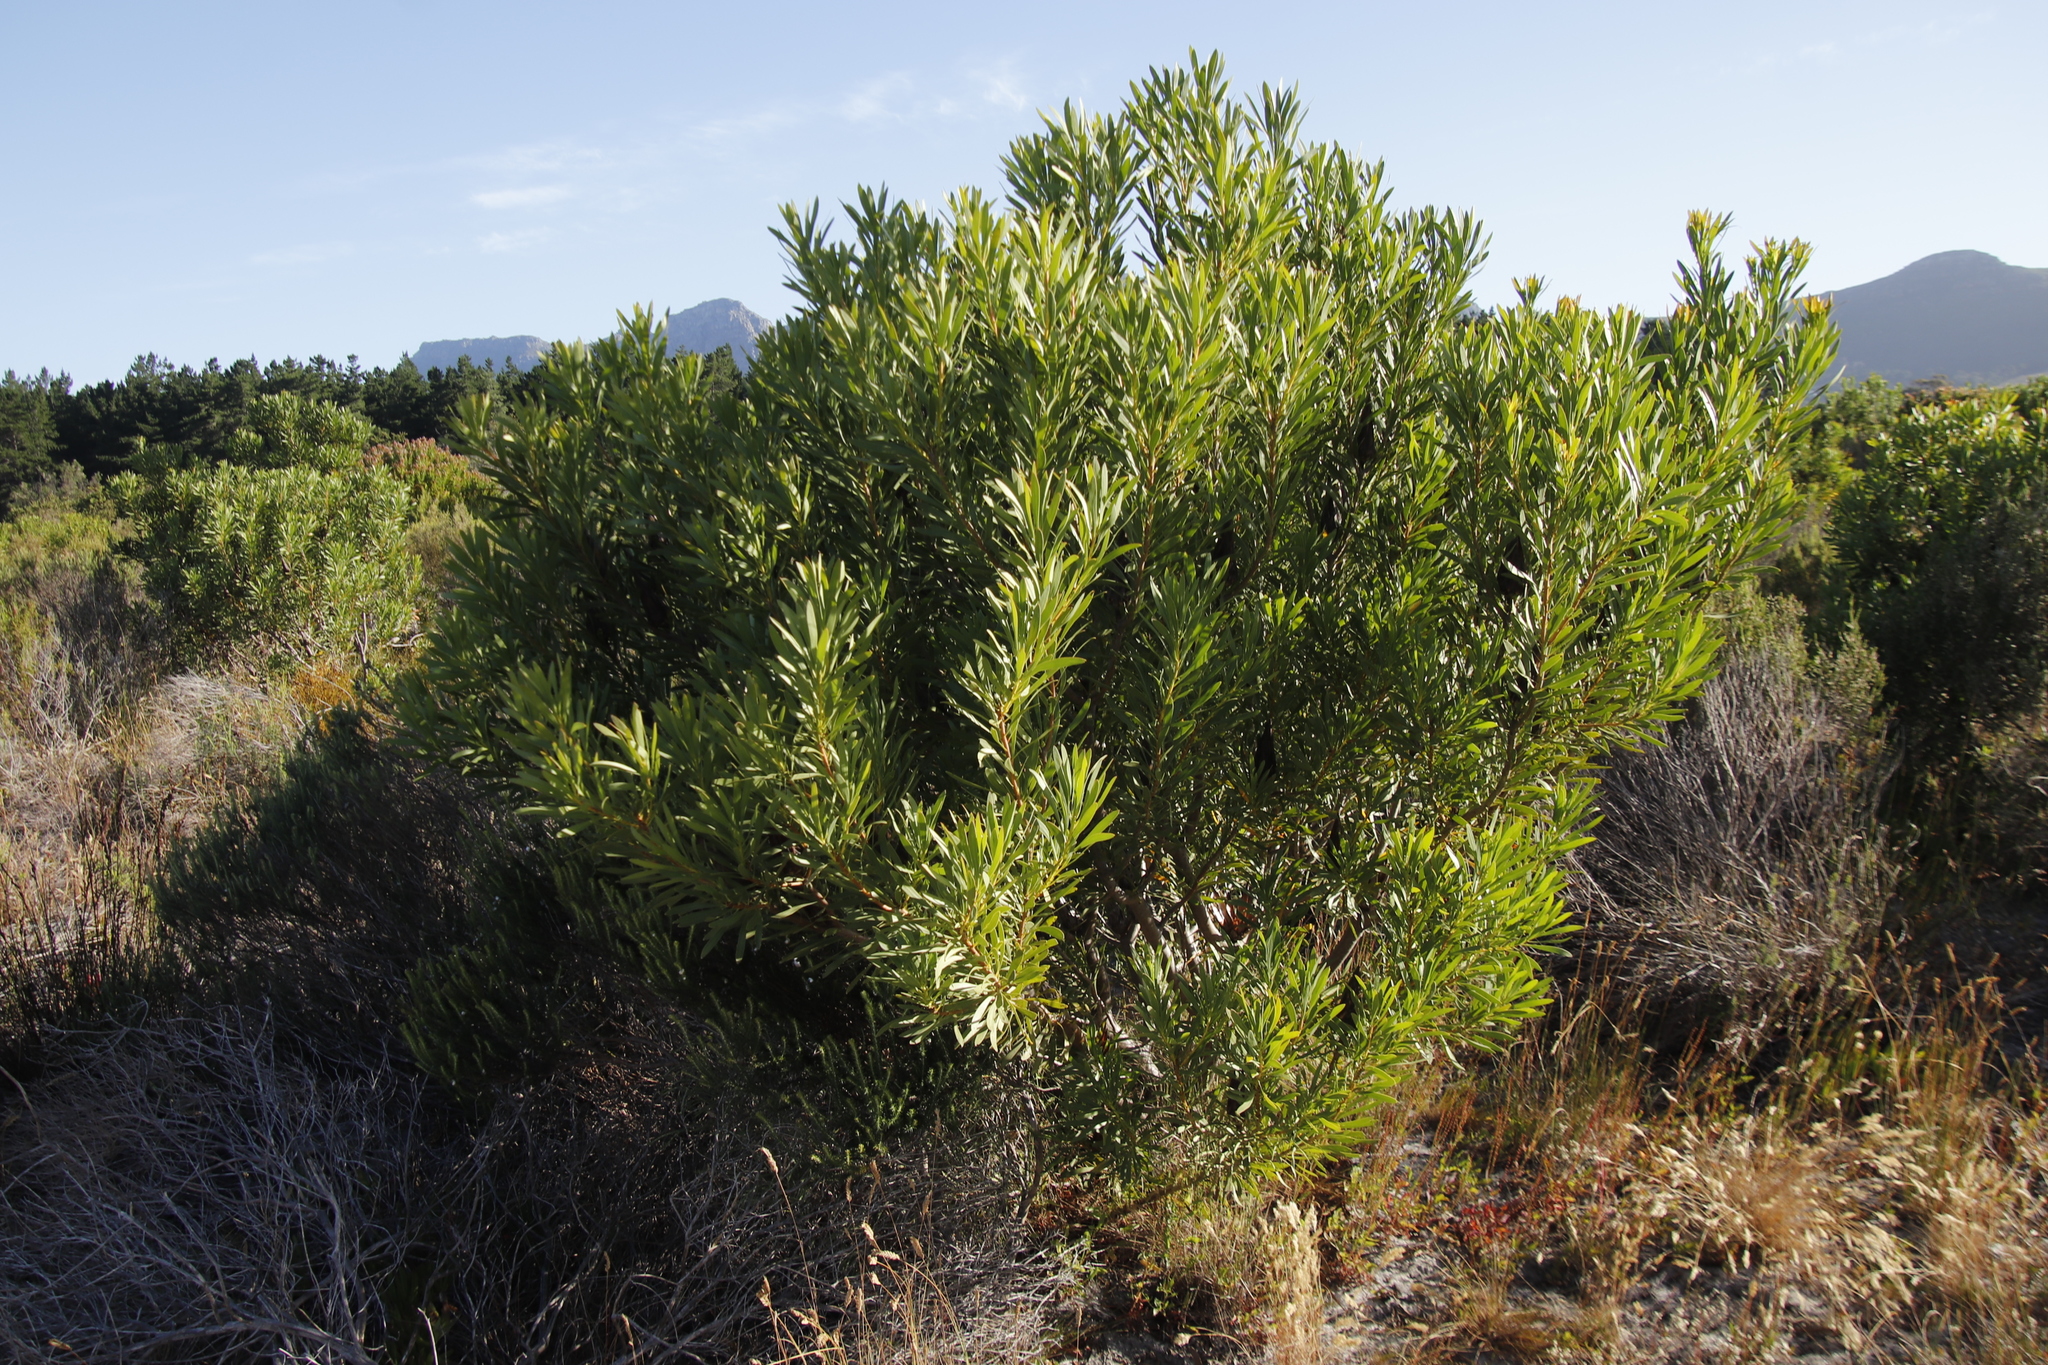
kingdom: Plantae
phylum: Tracheophyta
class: Magnoliopsida
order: Proteales
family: Proteaceae
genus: Protea
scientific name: Protea repens
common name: Sugarbush
